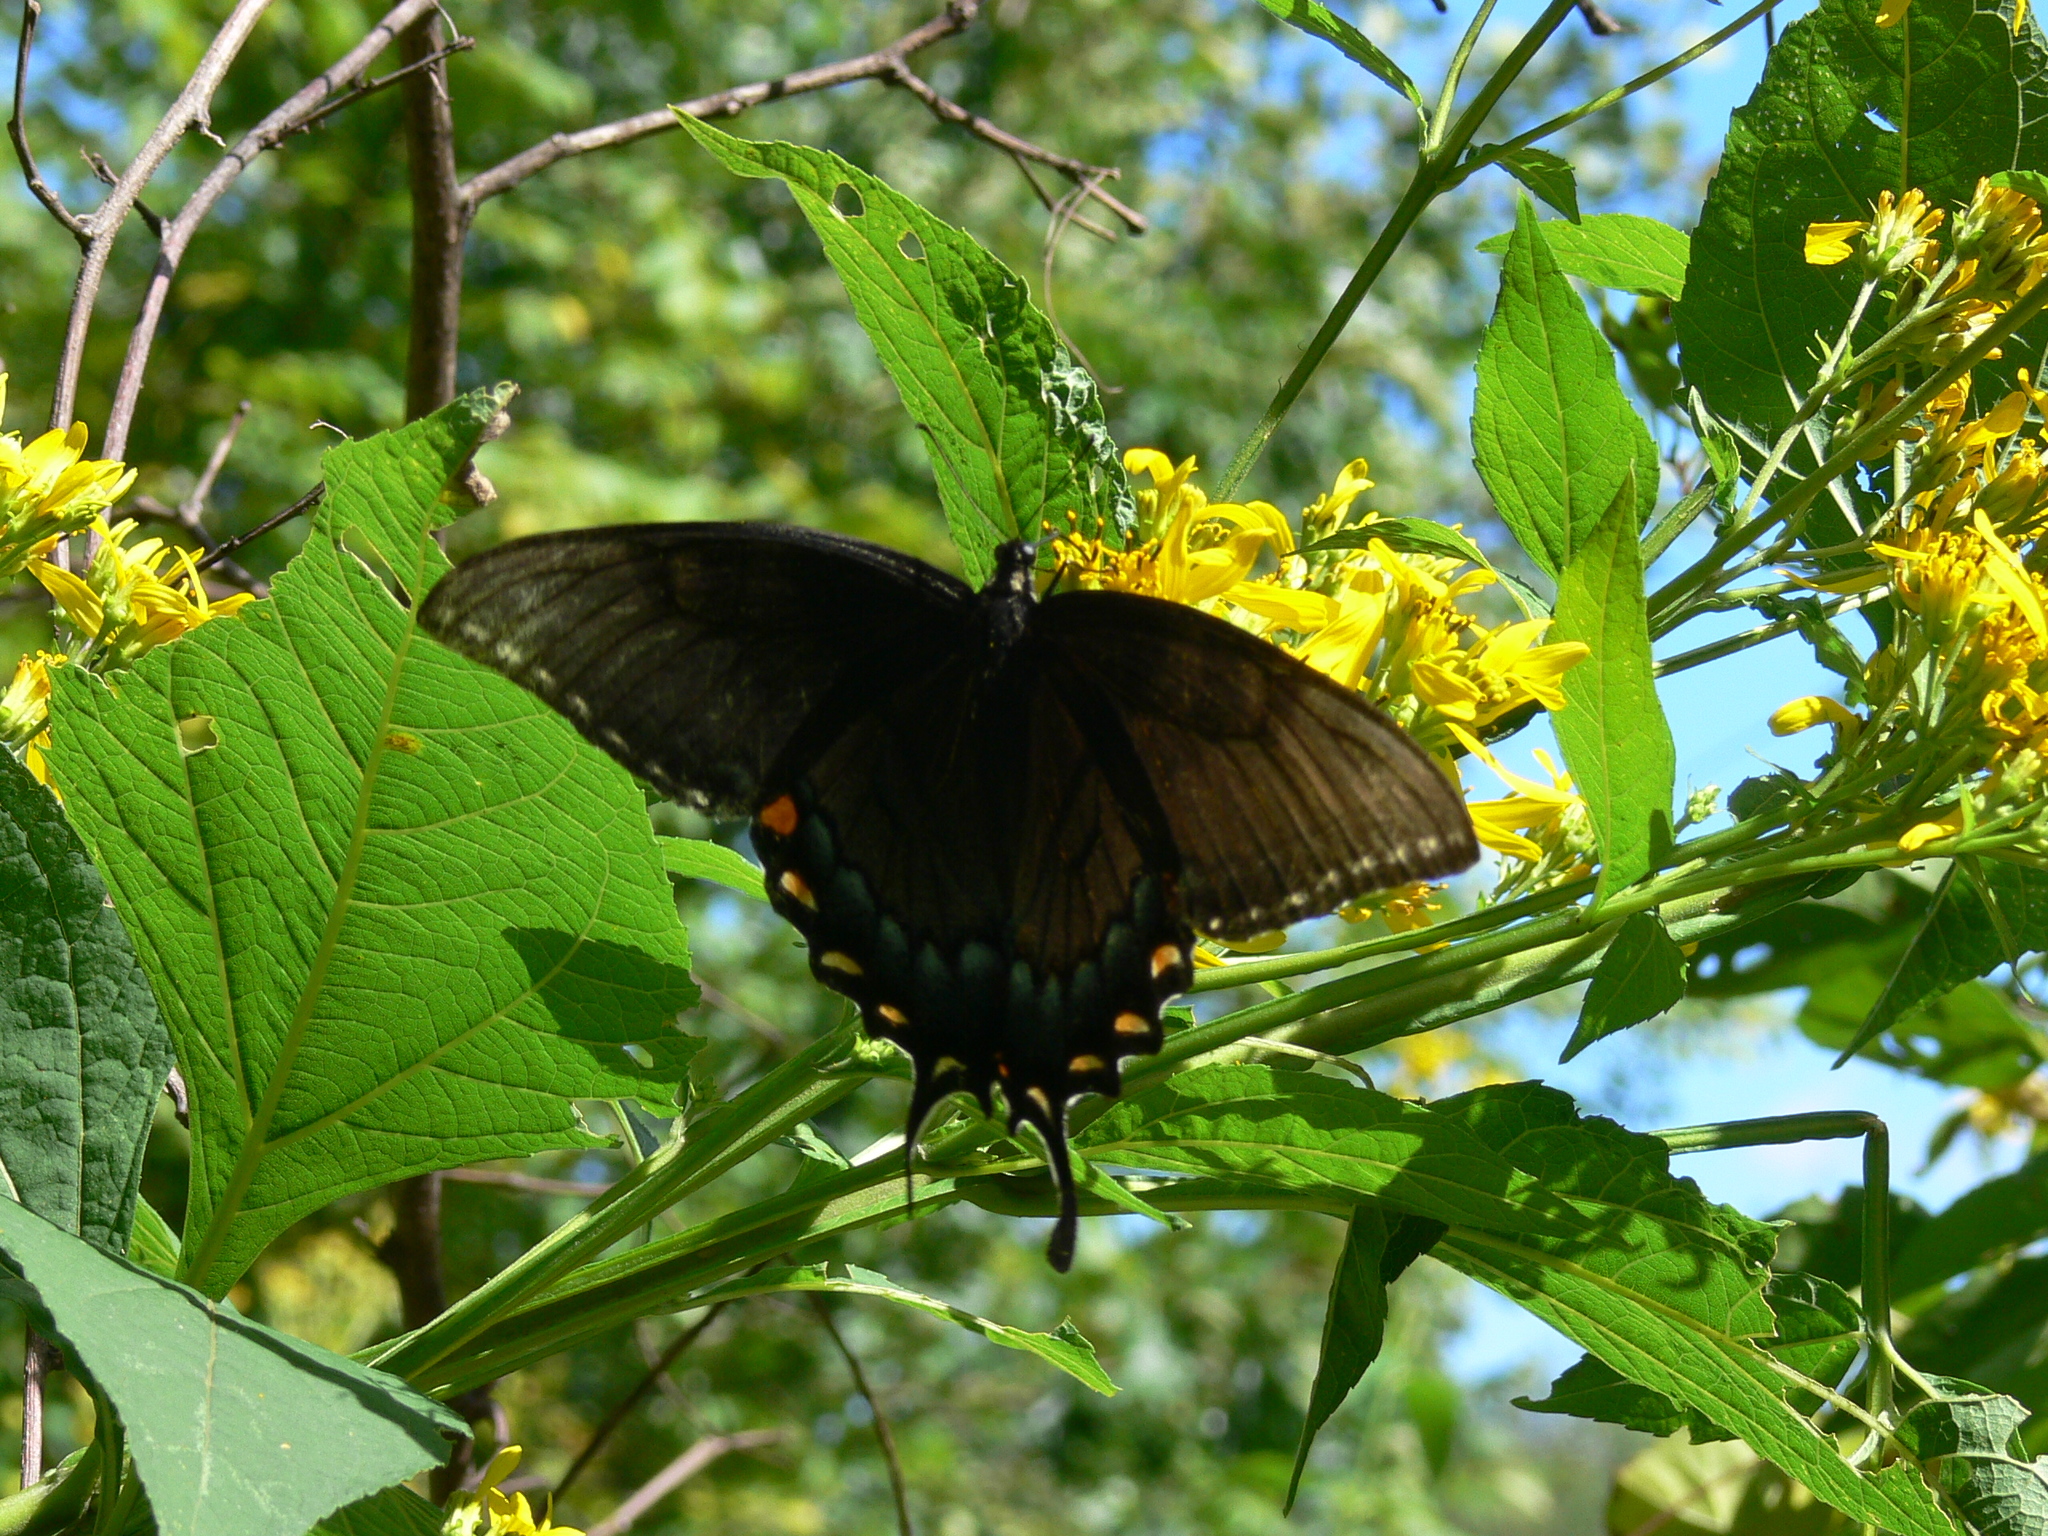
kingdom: Animalia
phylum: Arthropoda
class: Insecta
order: Lepidoptera
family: Papilionidae
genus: Papilio
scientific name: Papilio glaucus
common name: Tiger swallowtail
